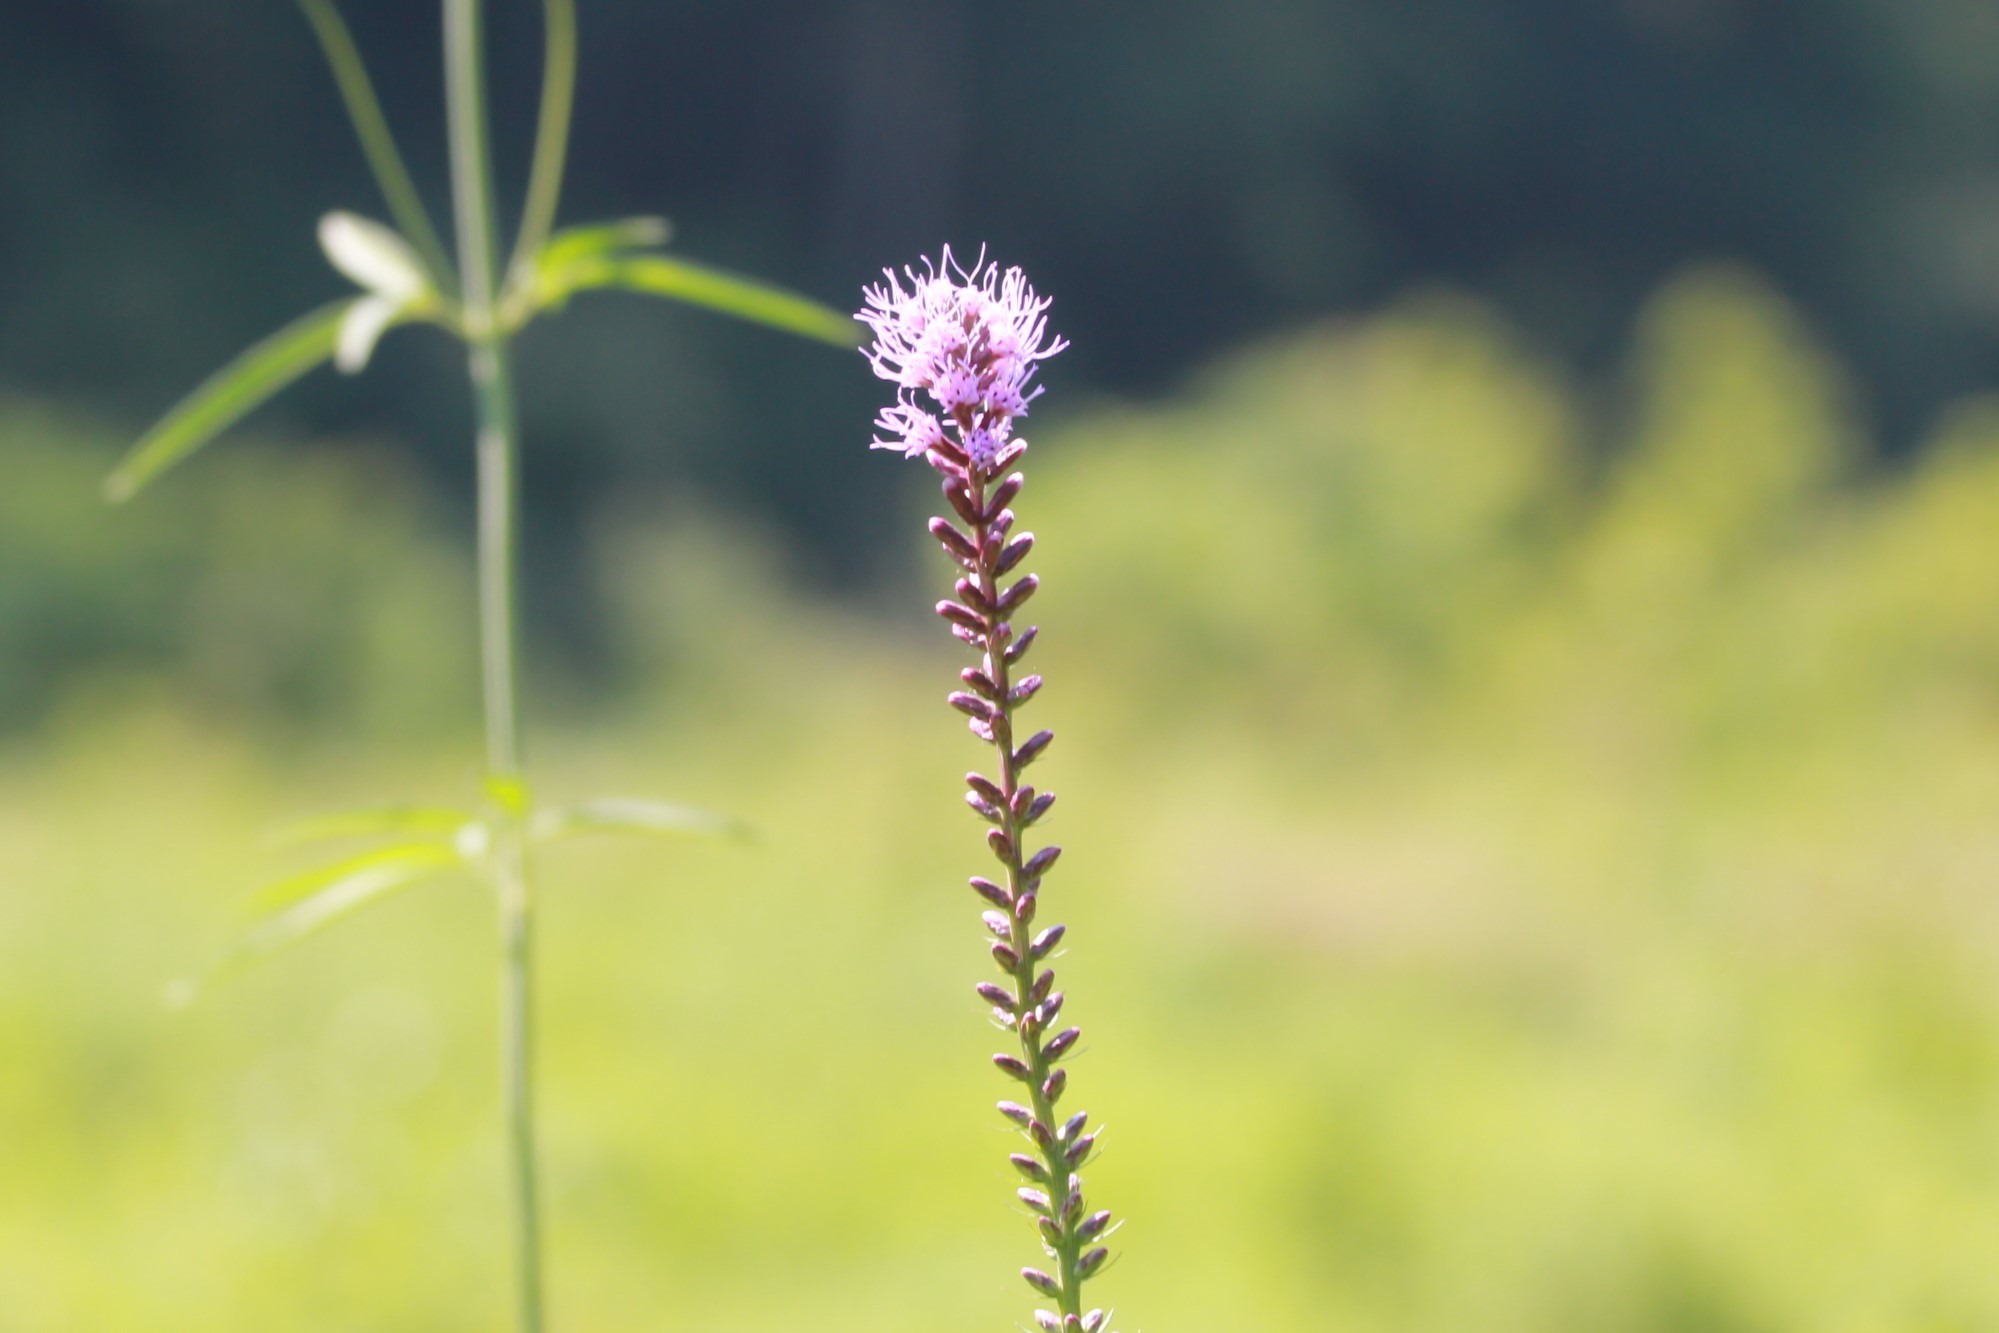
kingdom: Plantae
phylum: Tracheophyta
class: Magnoliopsida
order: Asterales
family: Asteraceae
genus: Liatris
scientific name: Liatris spicata
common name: Florist gayfeather
